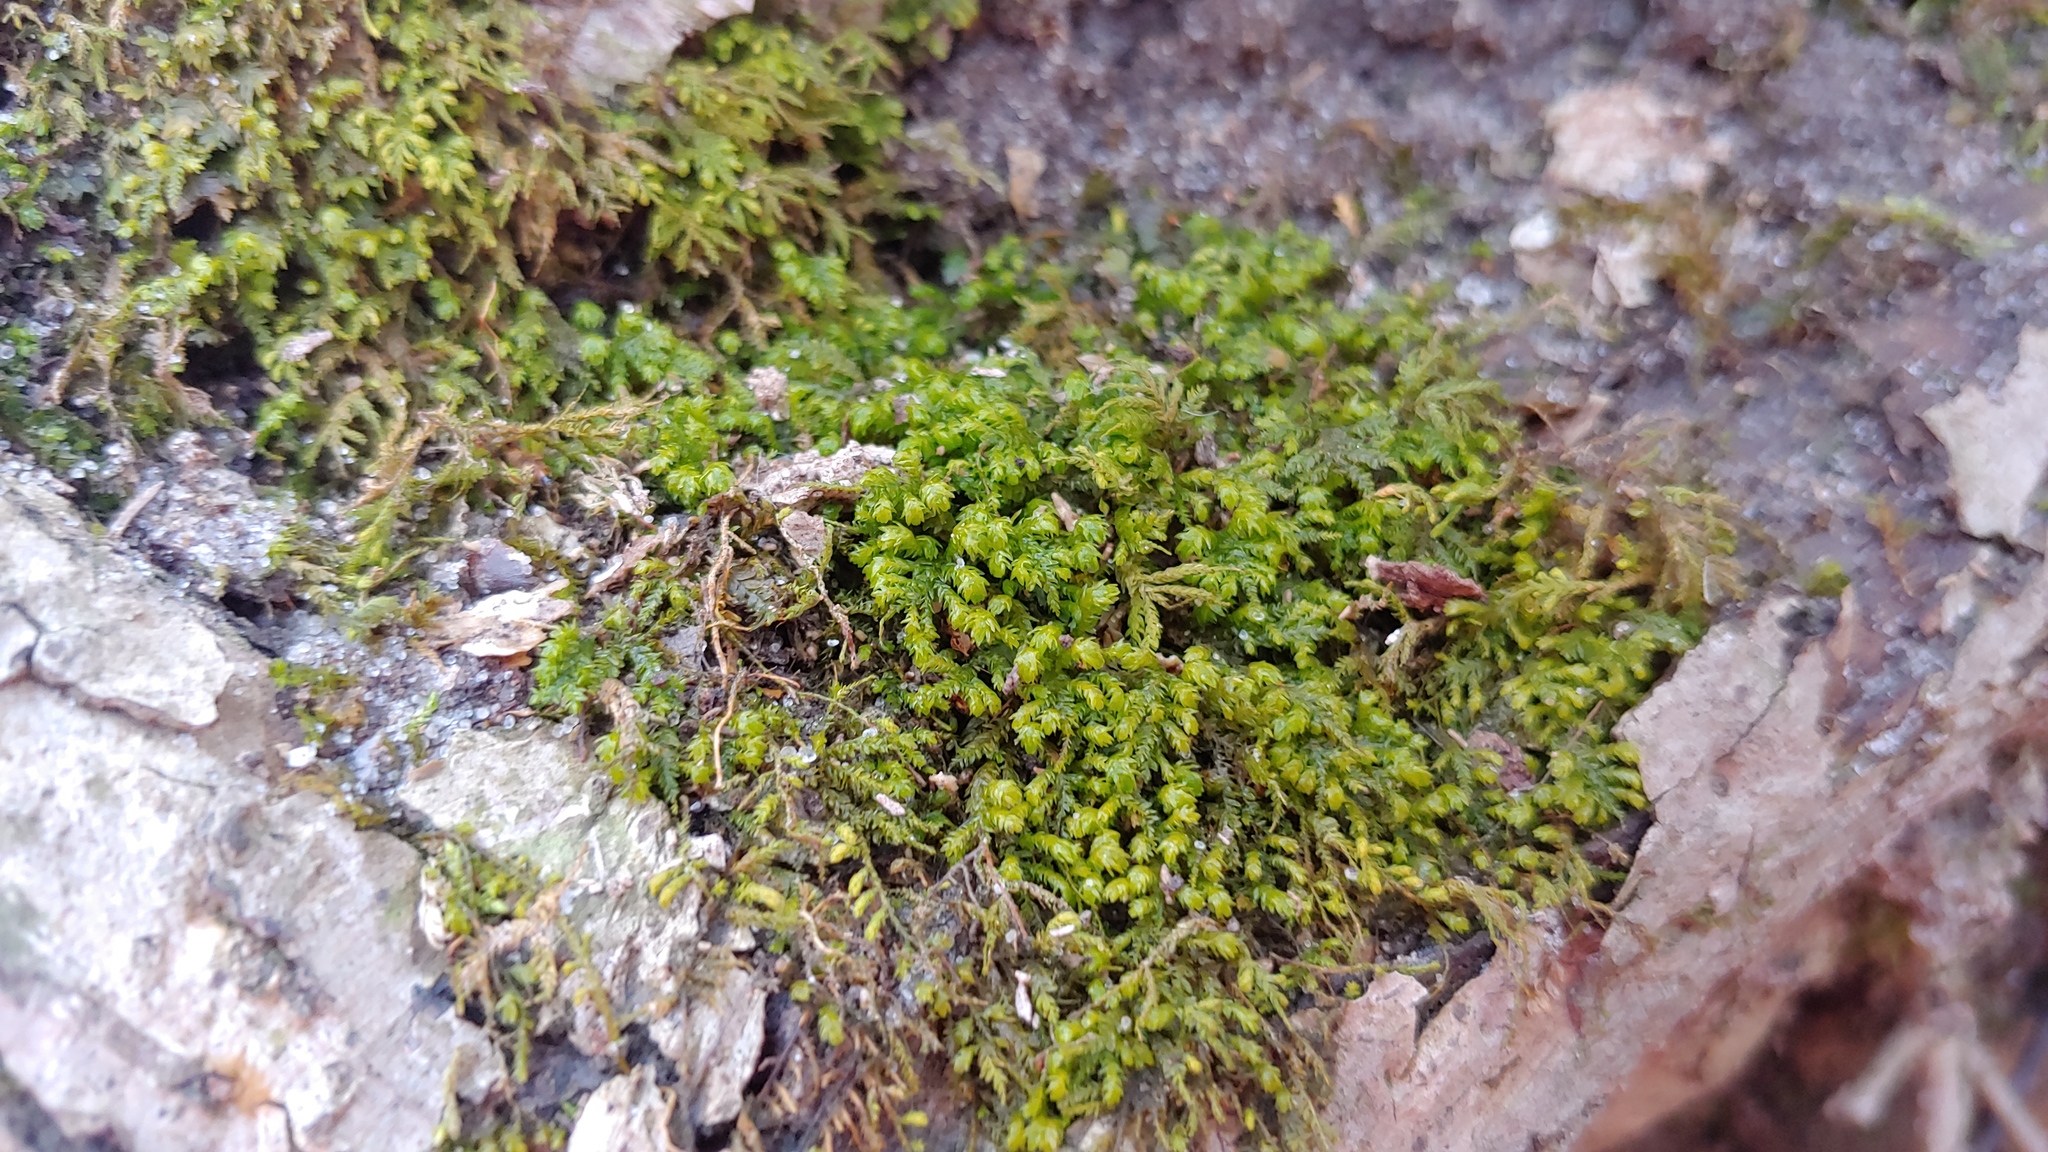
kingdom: Plantae
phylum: Bryophyta
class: Bryopsida
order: Hypnales
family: Neckeraceae
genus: Pseudanomodon
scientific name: Pseudanomodon attenuatus
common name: Tree-skirt moss
